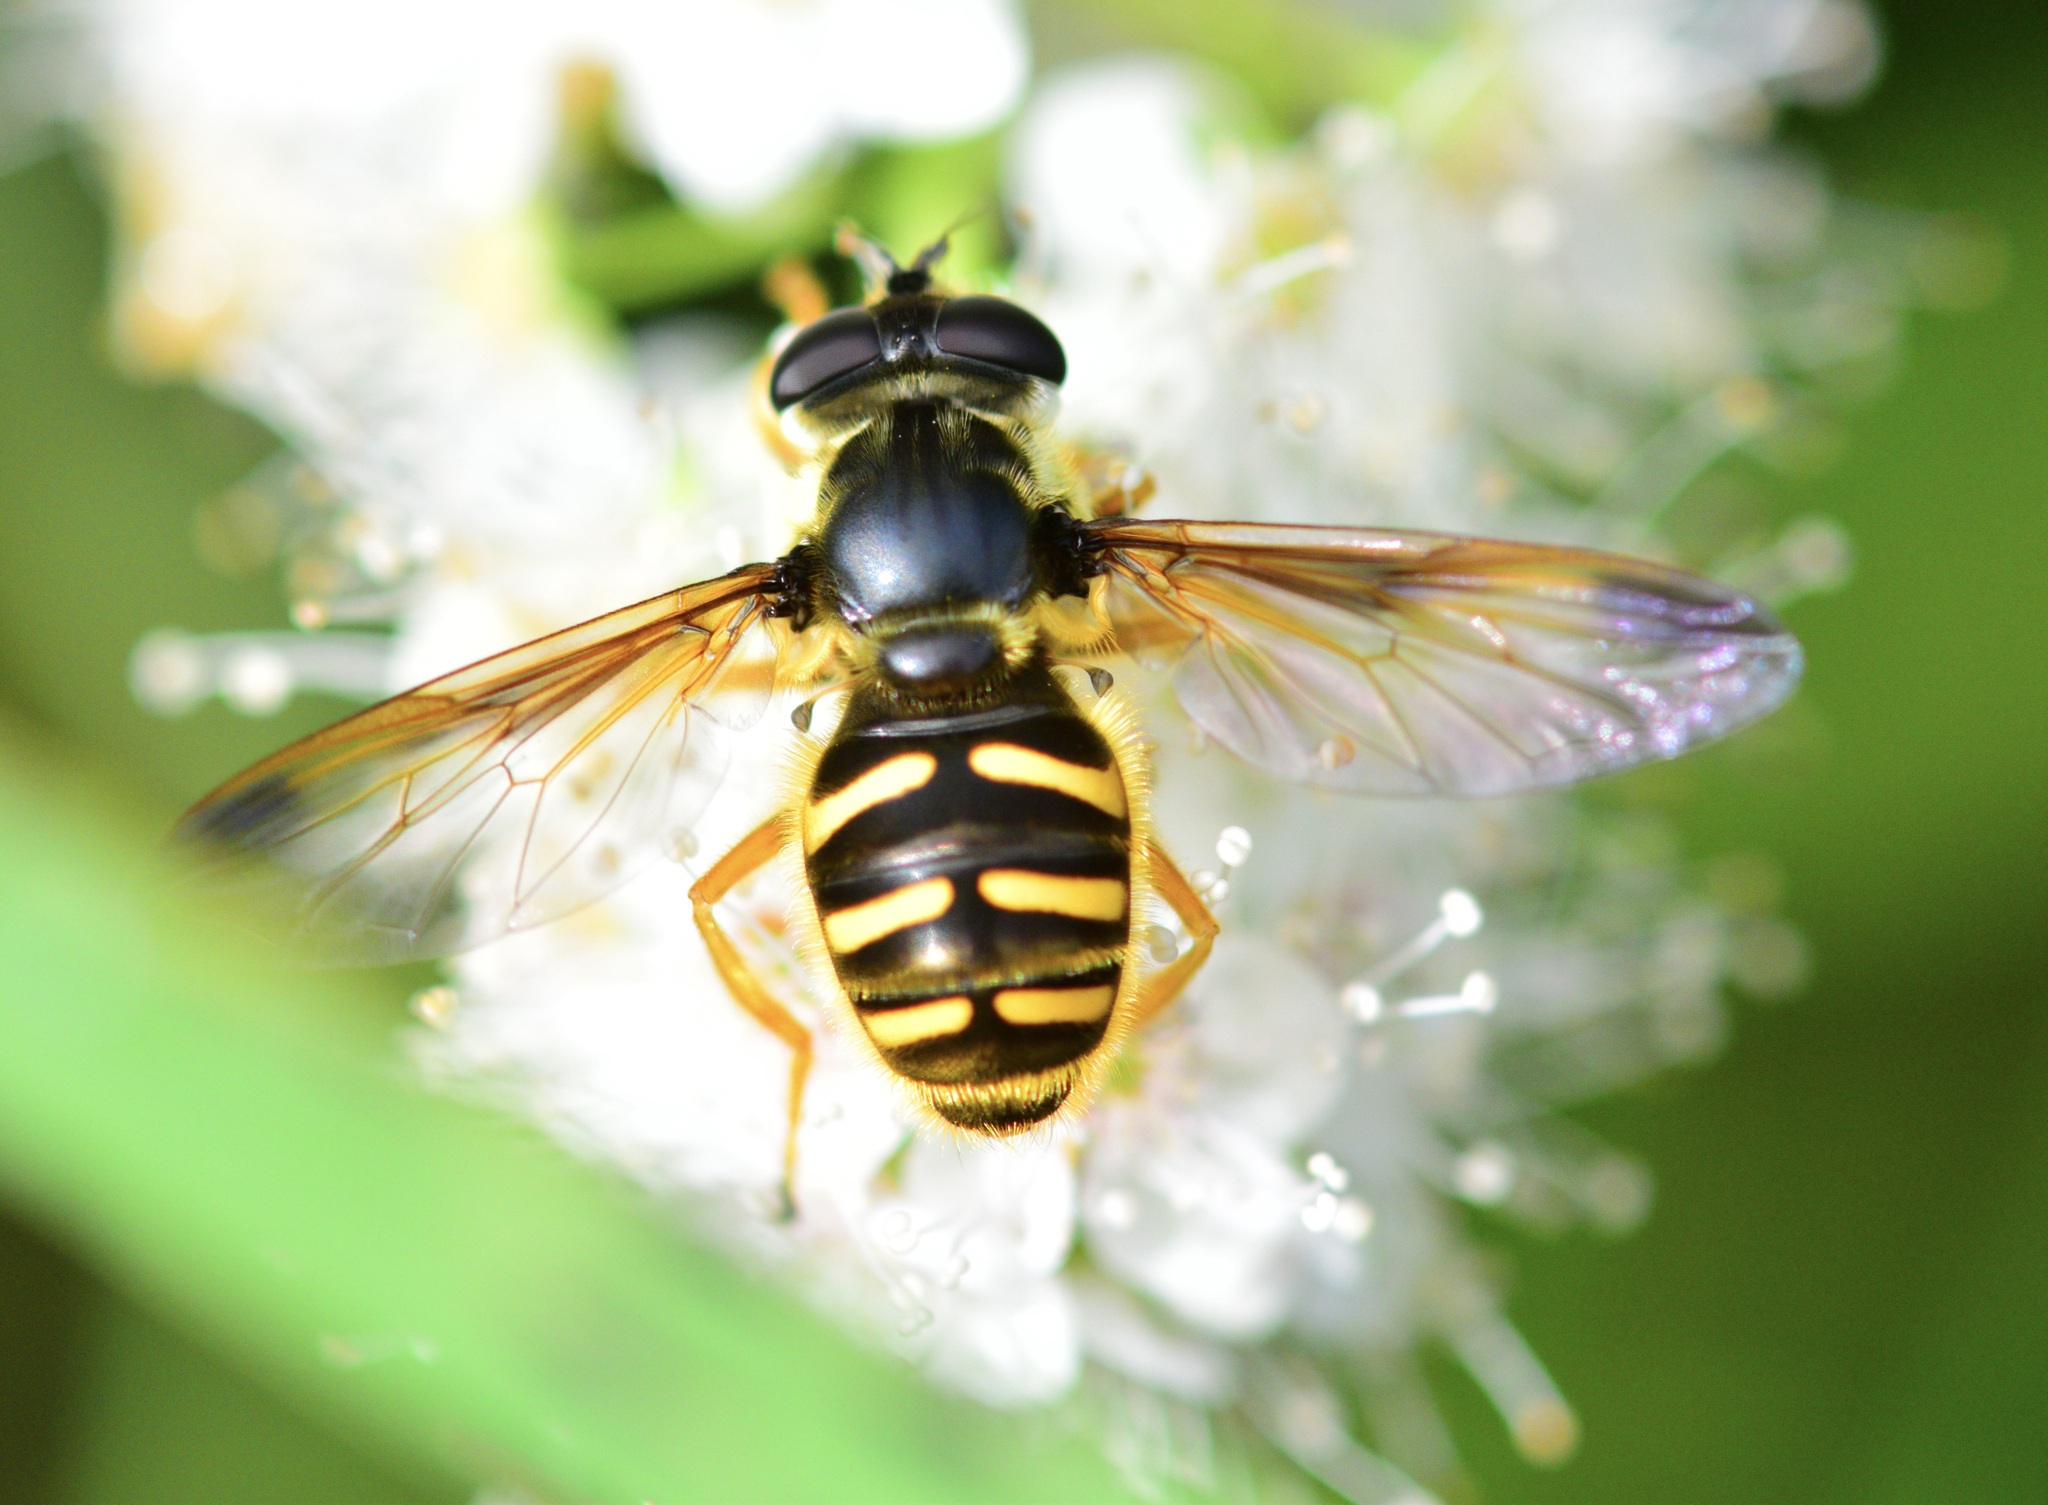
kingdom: Animalia
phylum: Arthropoda
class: Insecta
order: Diptera
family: Syrphidae
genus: Sericomyia
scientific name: Sericomyia chrysotoxoides
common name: Oblique-banded pond fly
